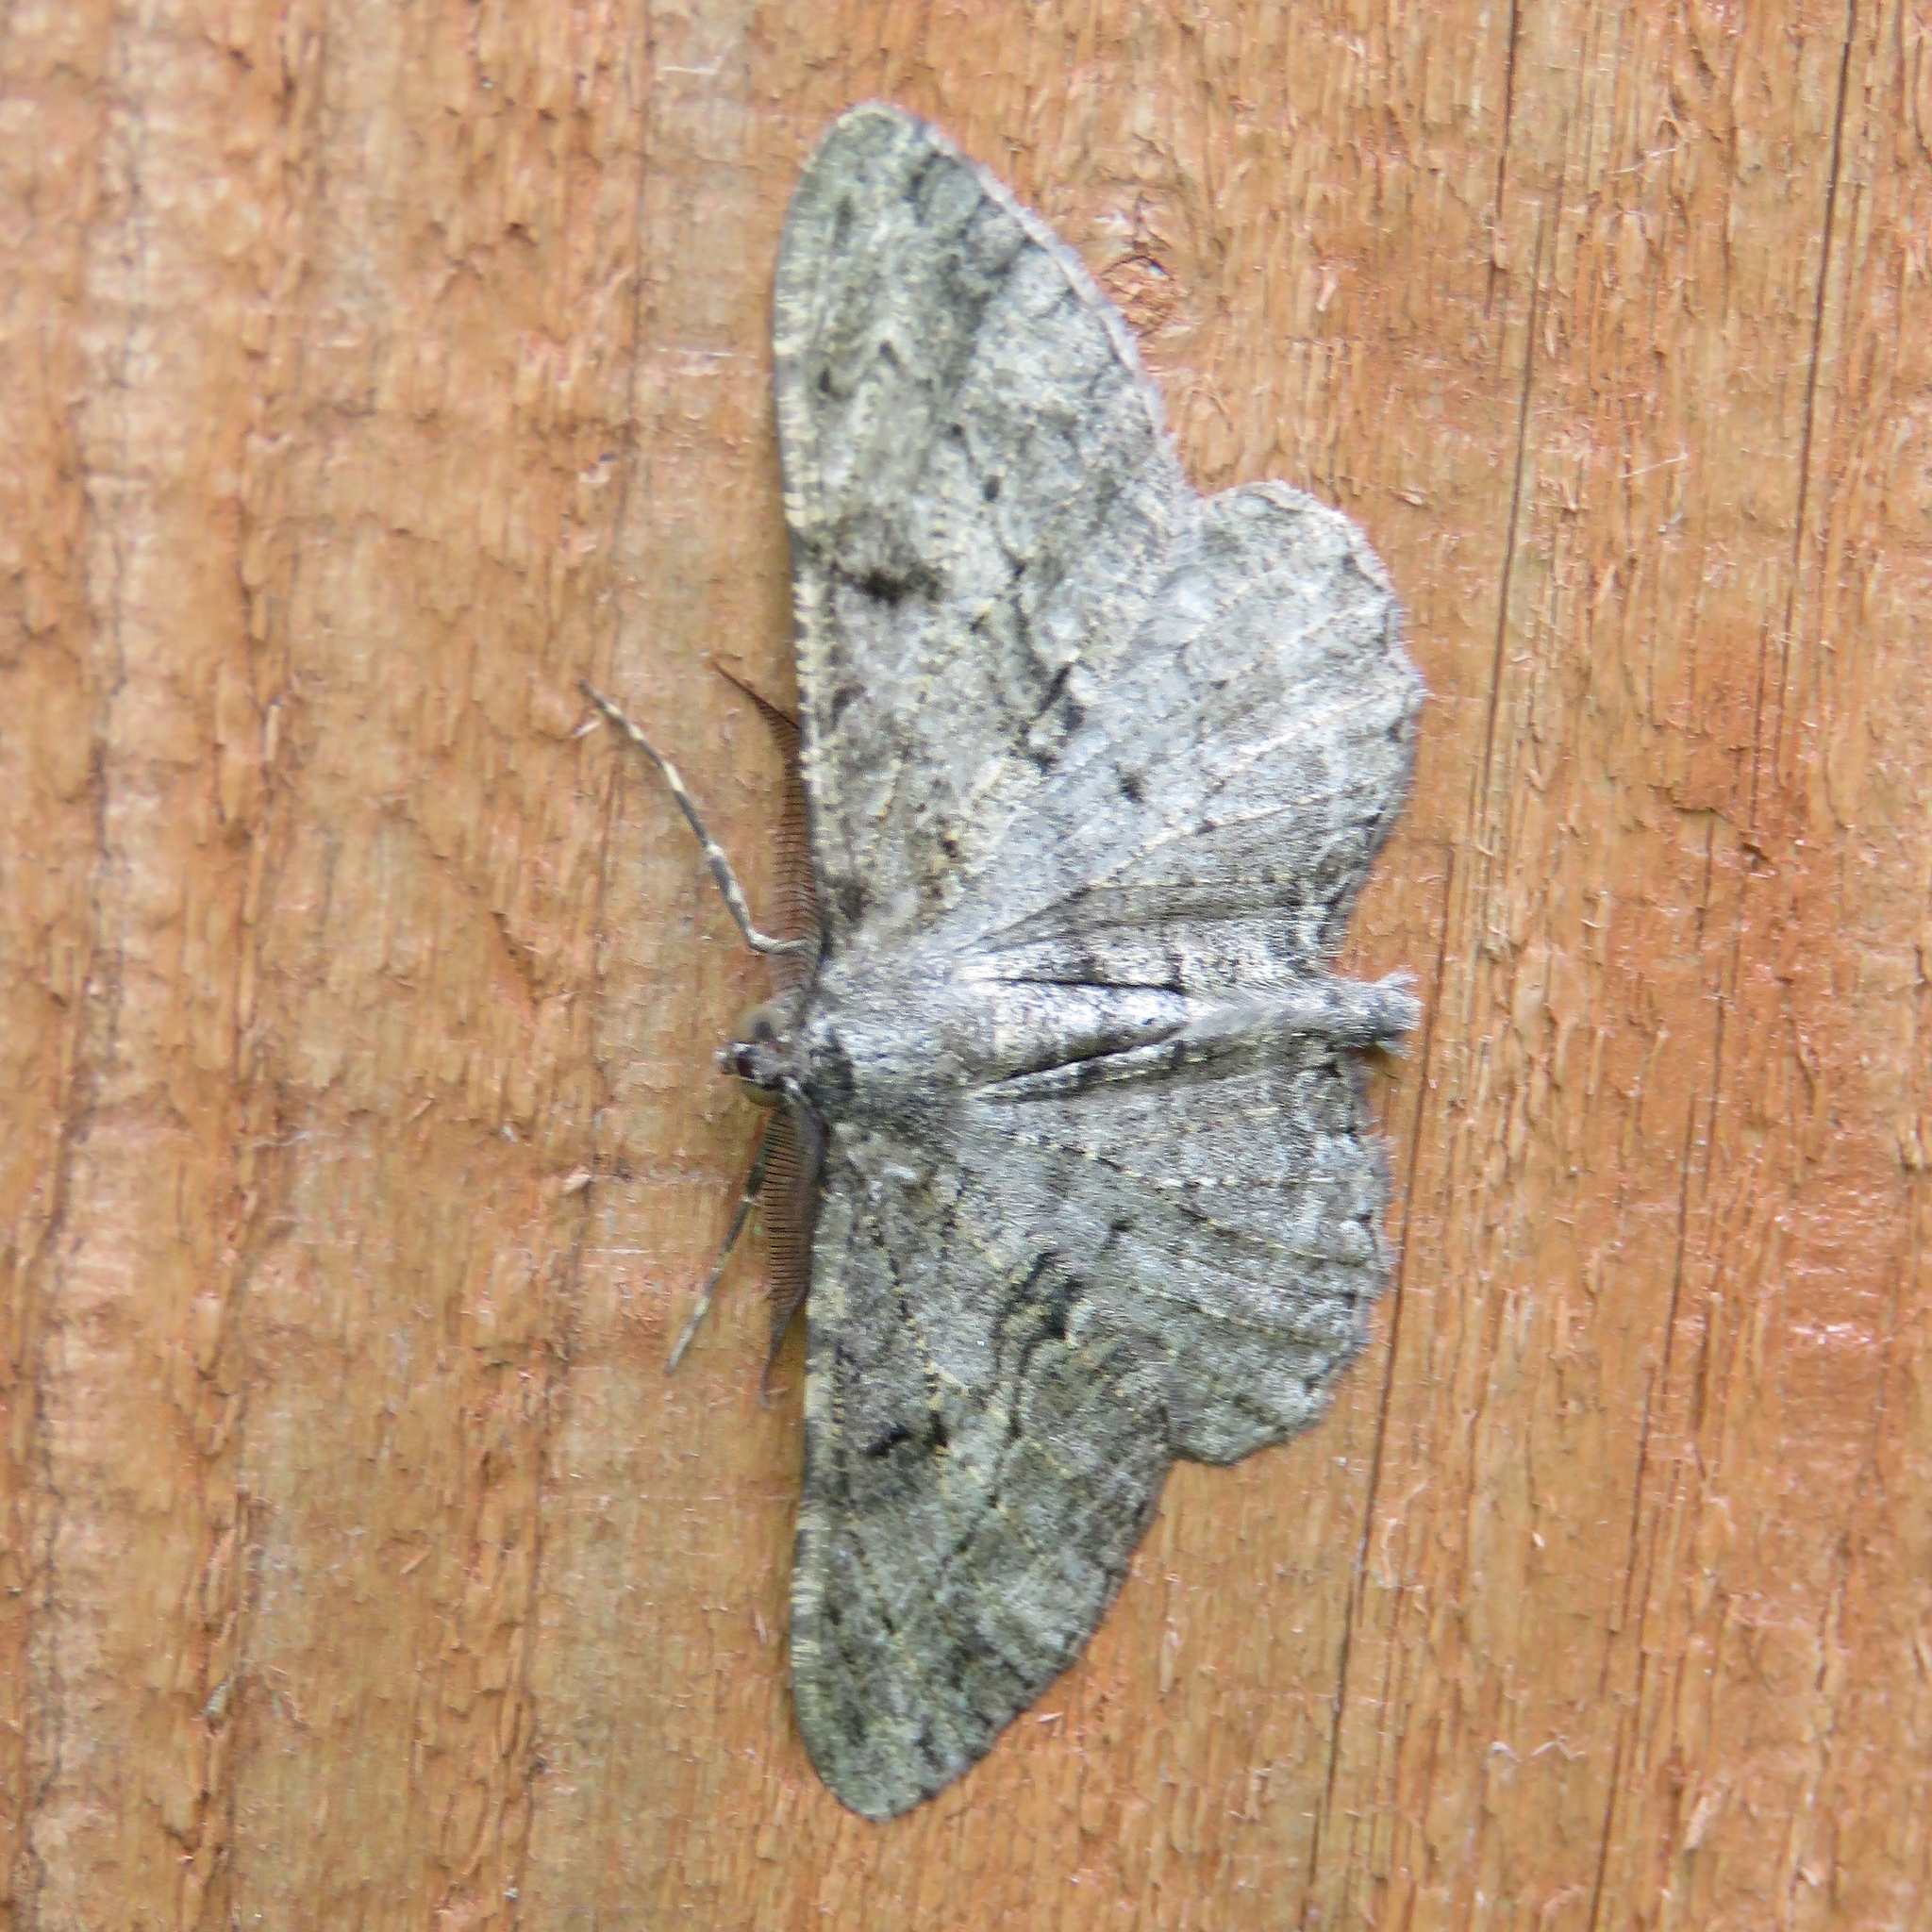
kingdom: Animalia
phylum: Arthropoda
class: Insecta
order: Lepidoptera
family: Geometridae
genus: Peribatodes
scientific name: Peribatodes rhomboidaria
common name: Willow beauty
